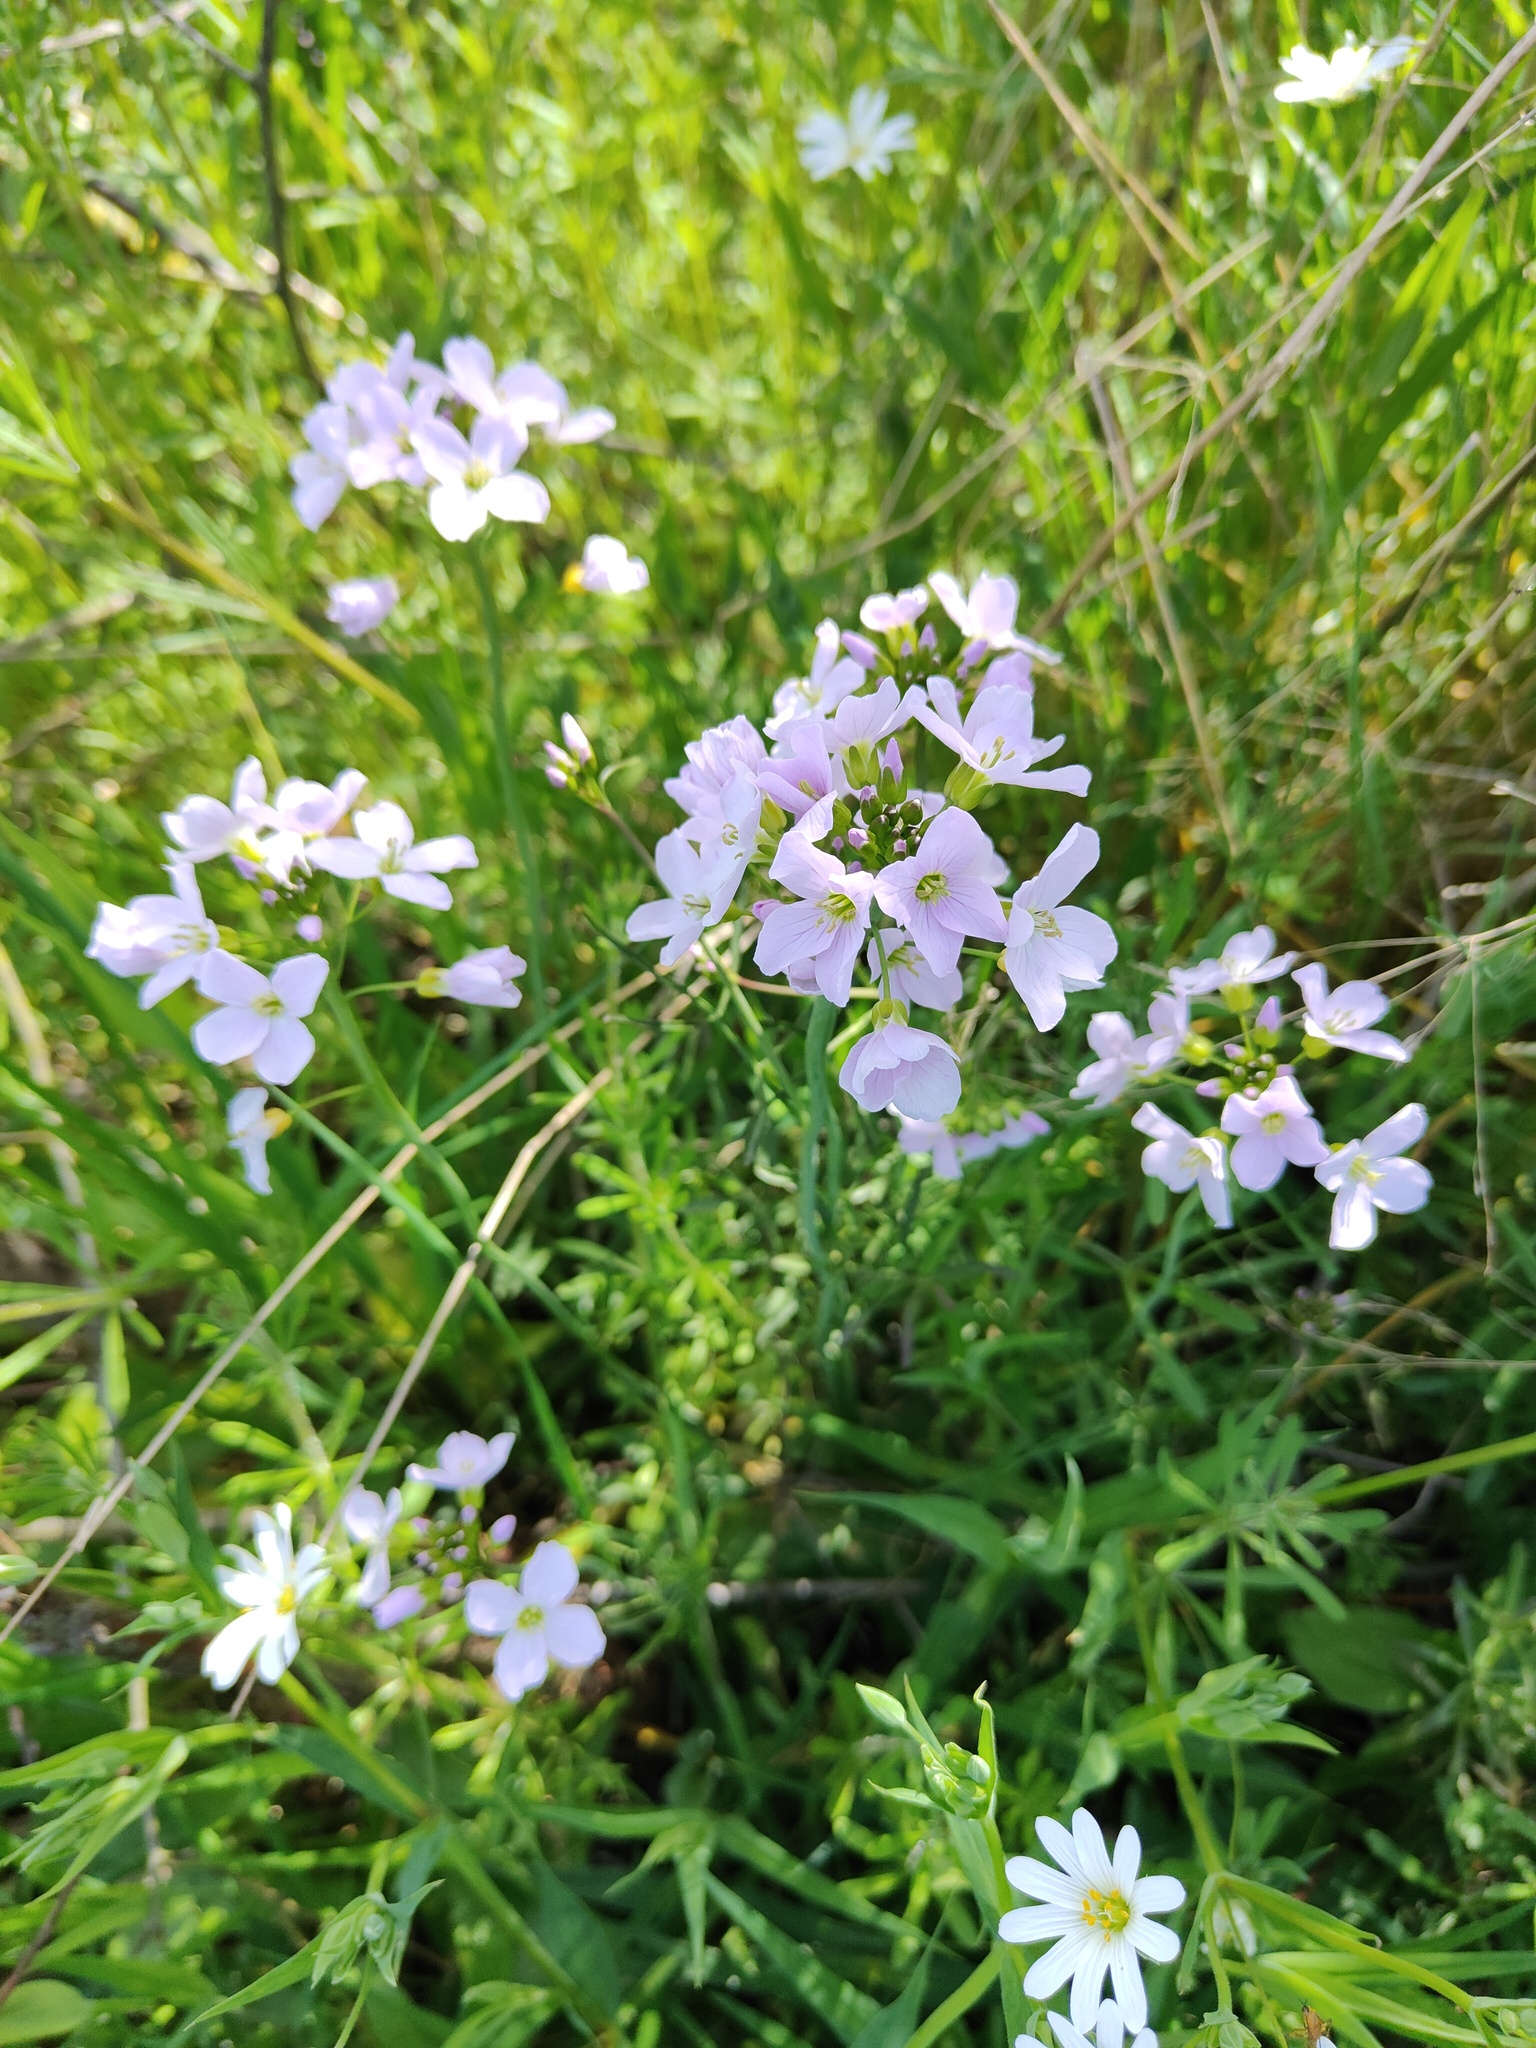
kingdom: Plantae
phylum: Tracheophyta
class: Magnoliopsida
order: Brassicales
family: Brassicaceae
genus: Cardamine
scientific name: Cardamine pratensis
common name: Cuckoo flower
